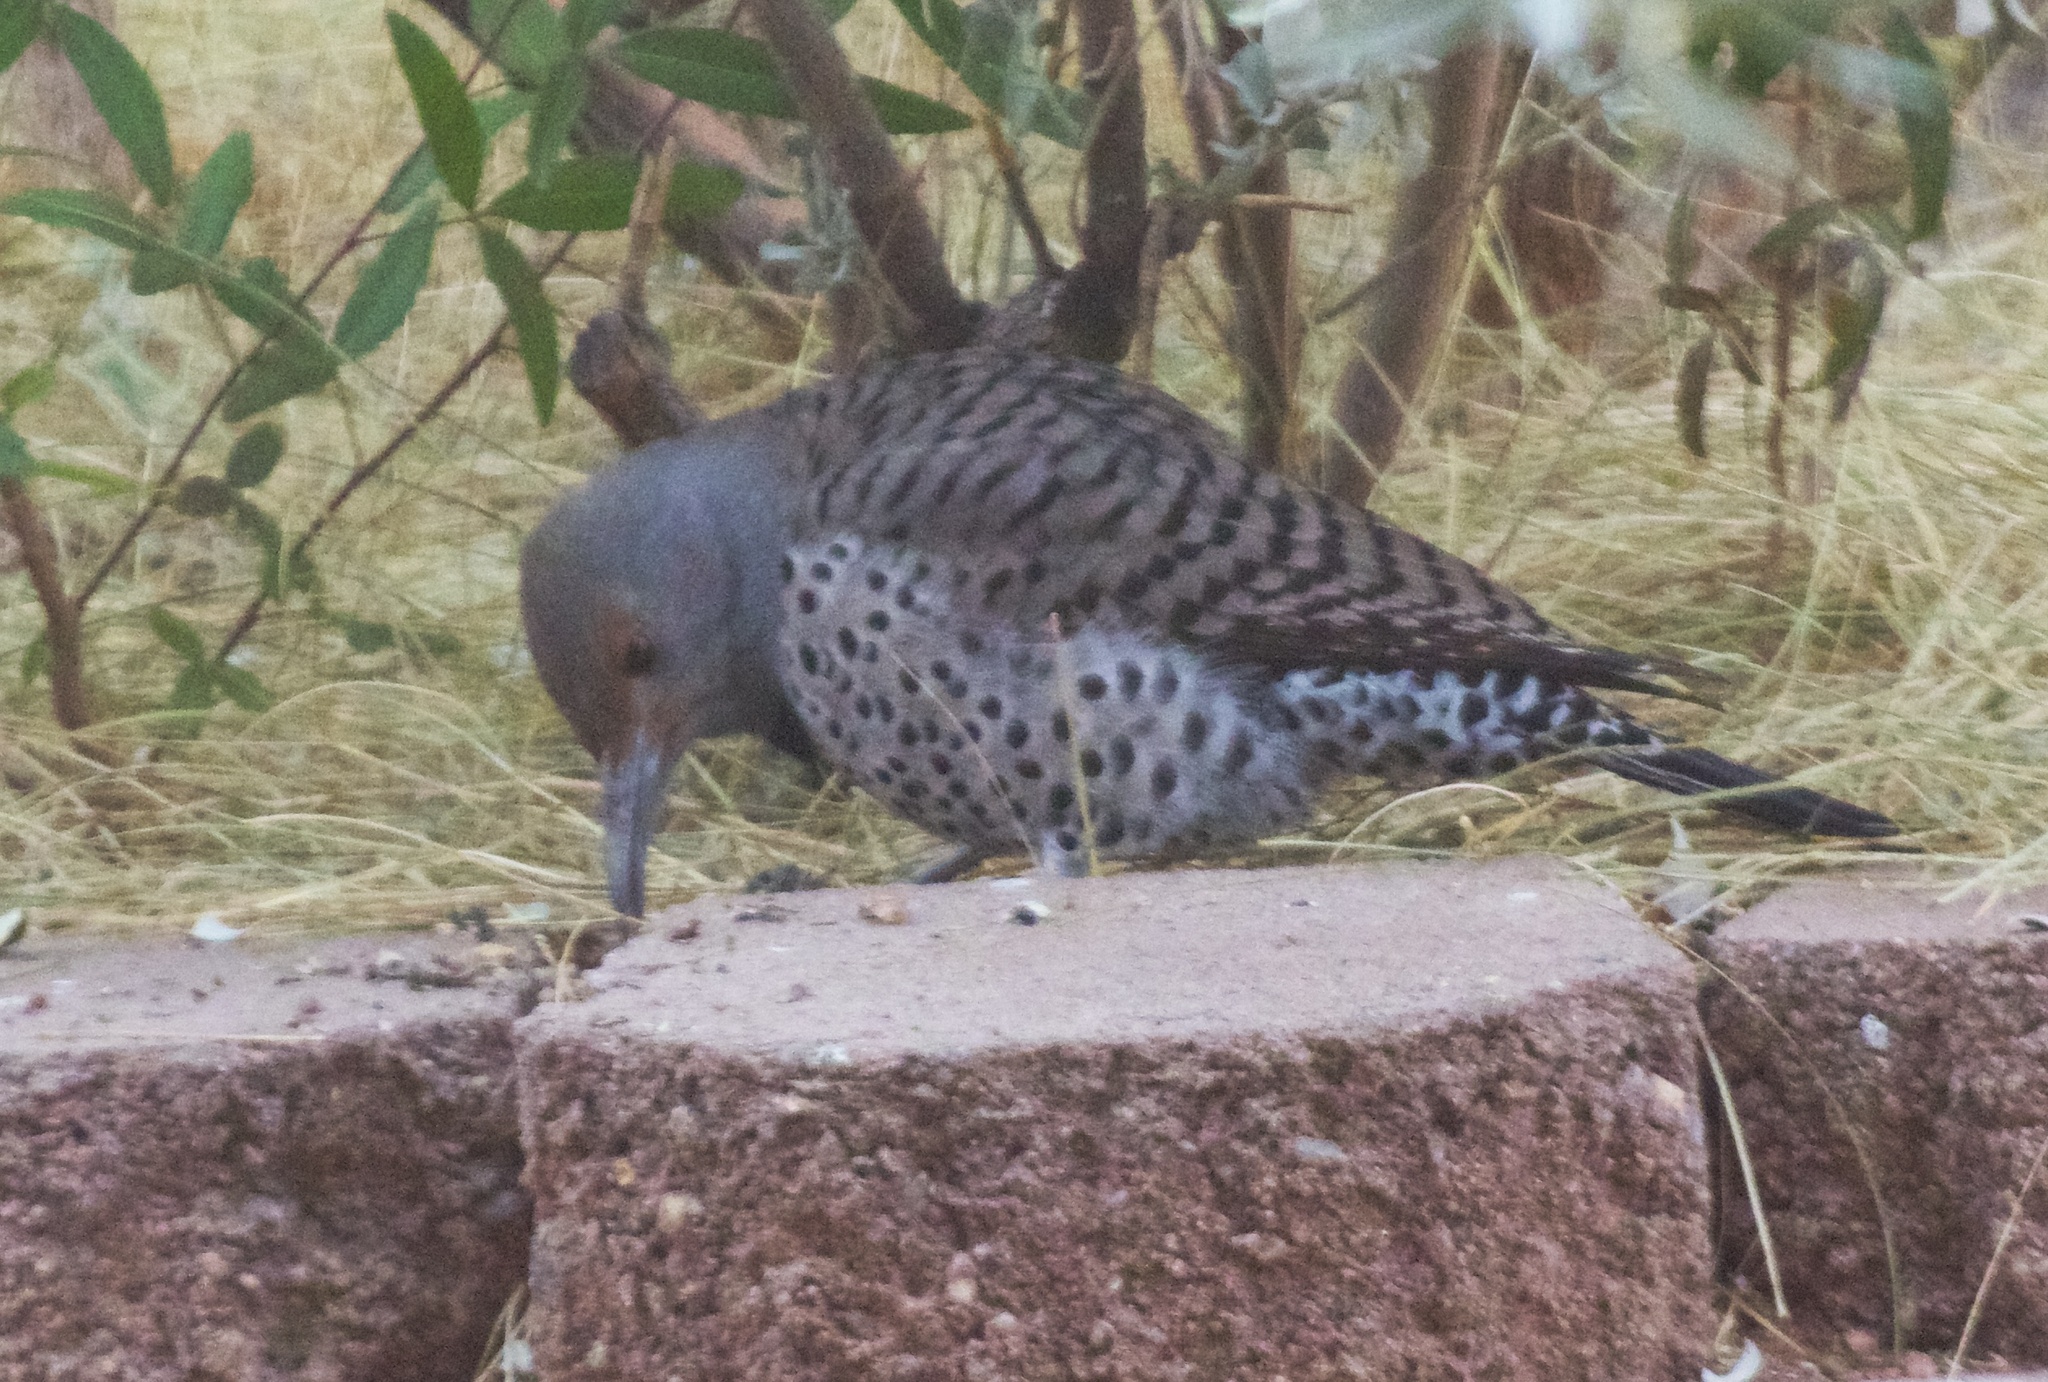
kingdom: Animalia
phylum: Chordata
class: Aves
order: Piciformes
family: Picidae
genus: Colaptes
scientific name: Colaptes auratus
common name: Northern flicker
